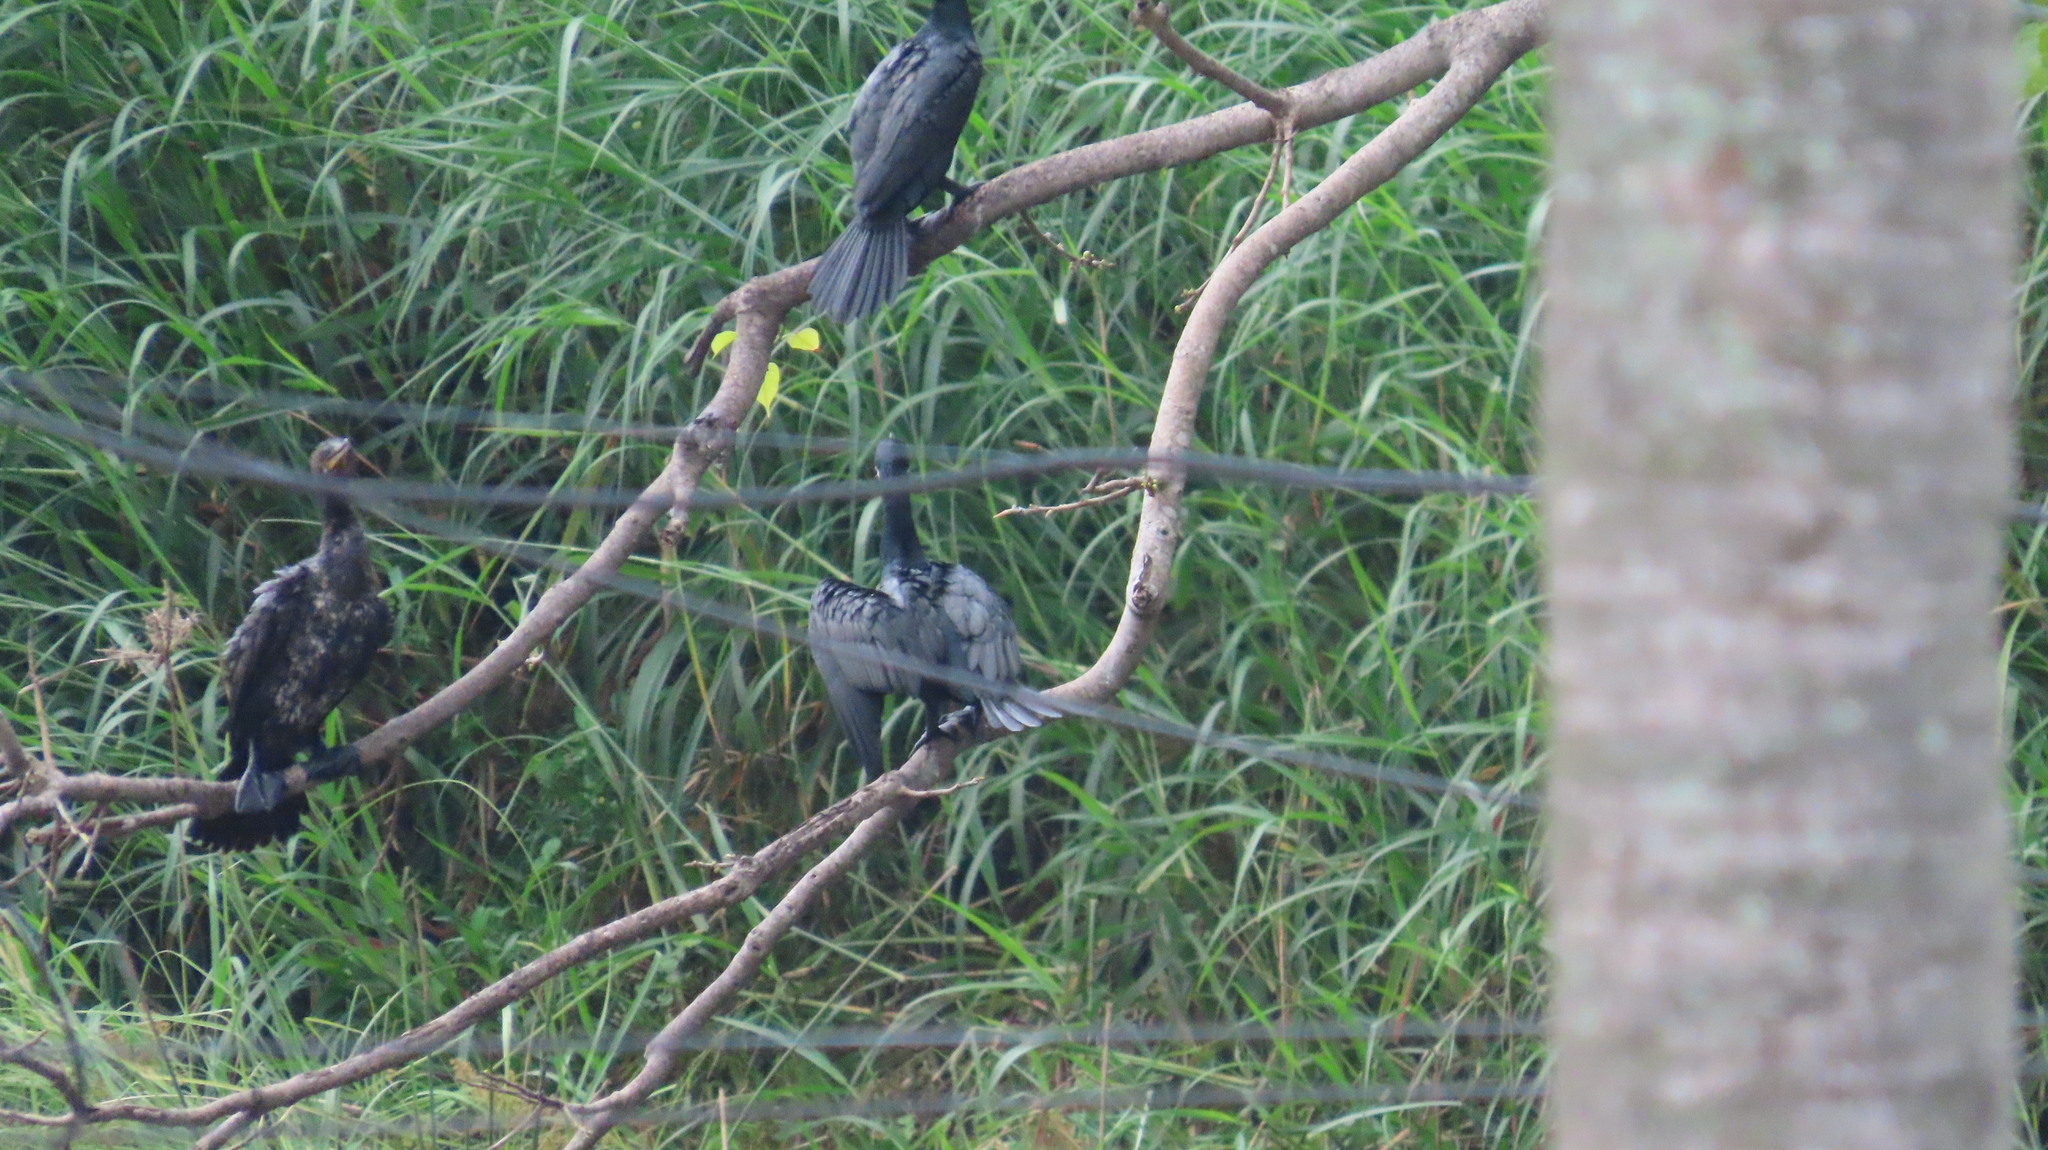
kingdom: Animalia
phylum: Chordata
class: Aves
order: Suliformes
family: Phalacrocoracidae
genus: Phalacrocorax
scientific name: Phalacrocorax fuscicollis
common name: Indian cormorant
